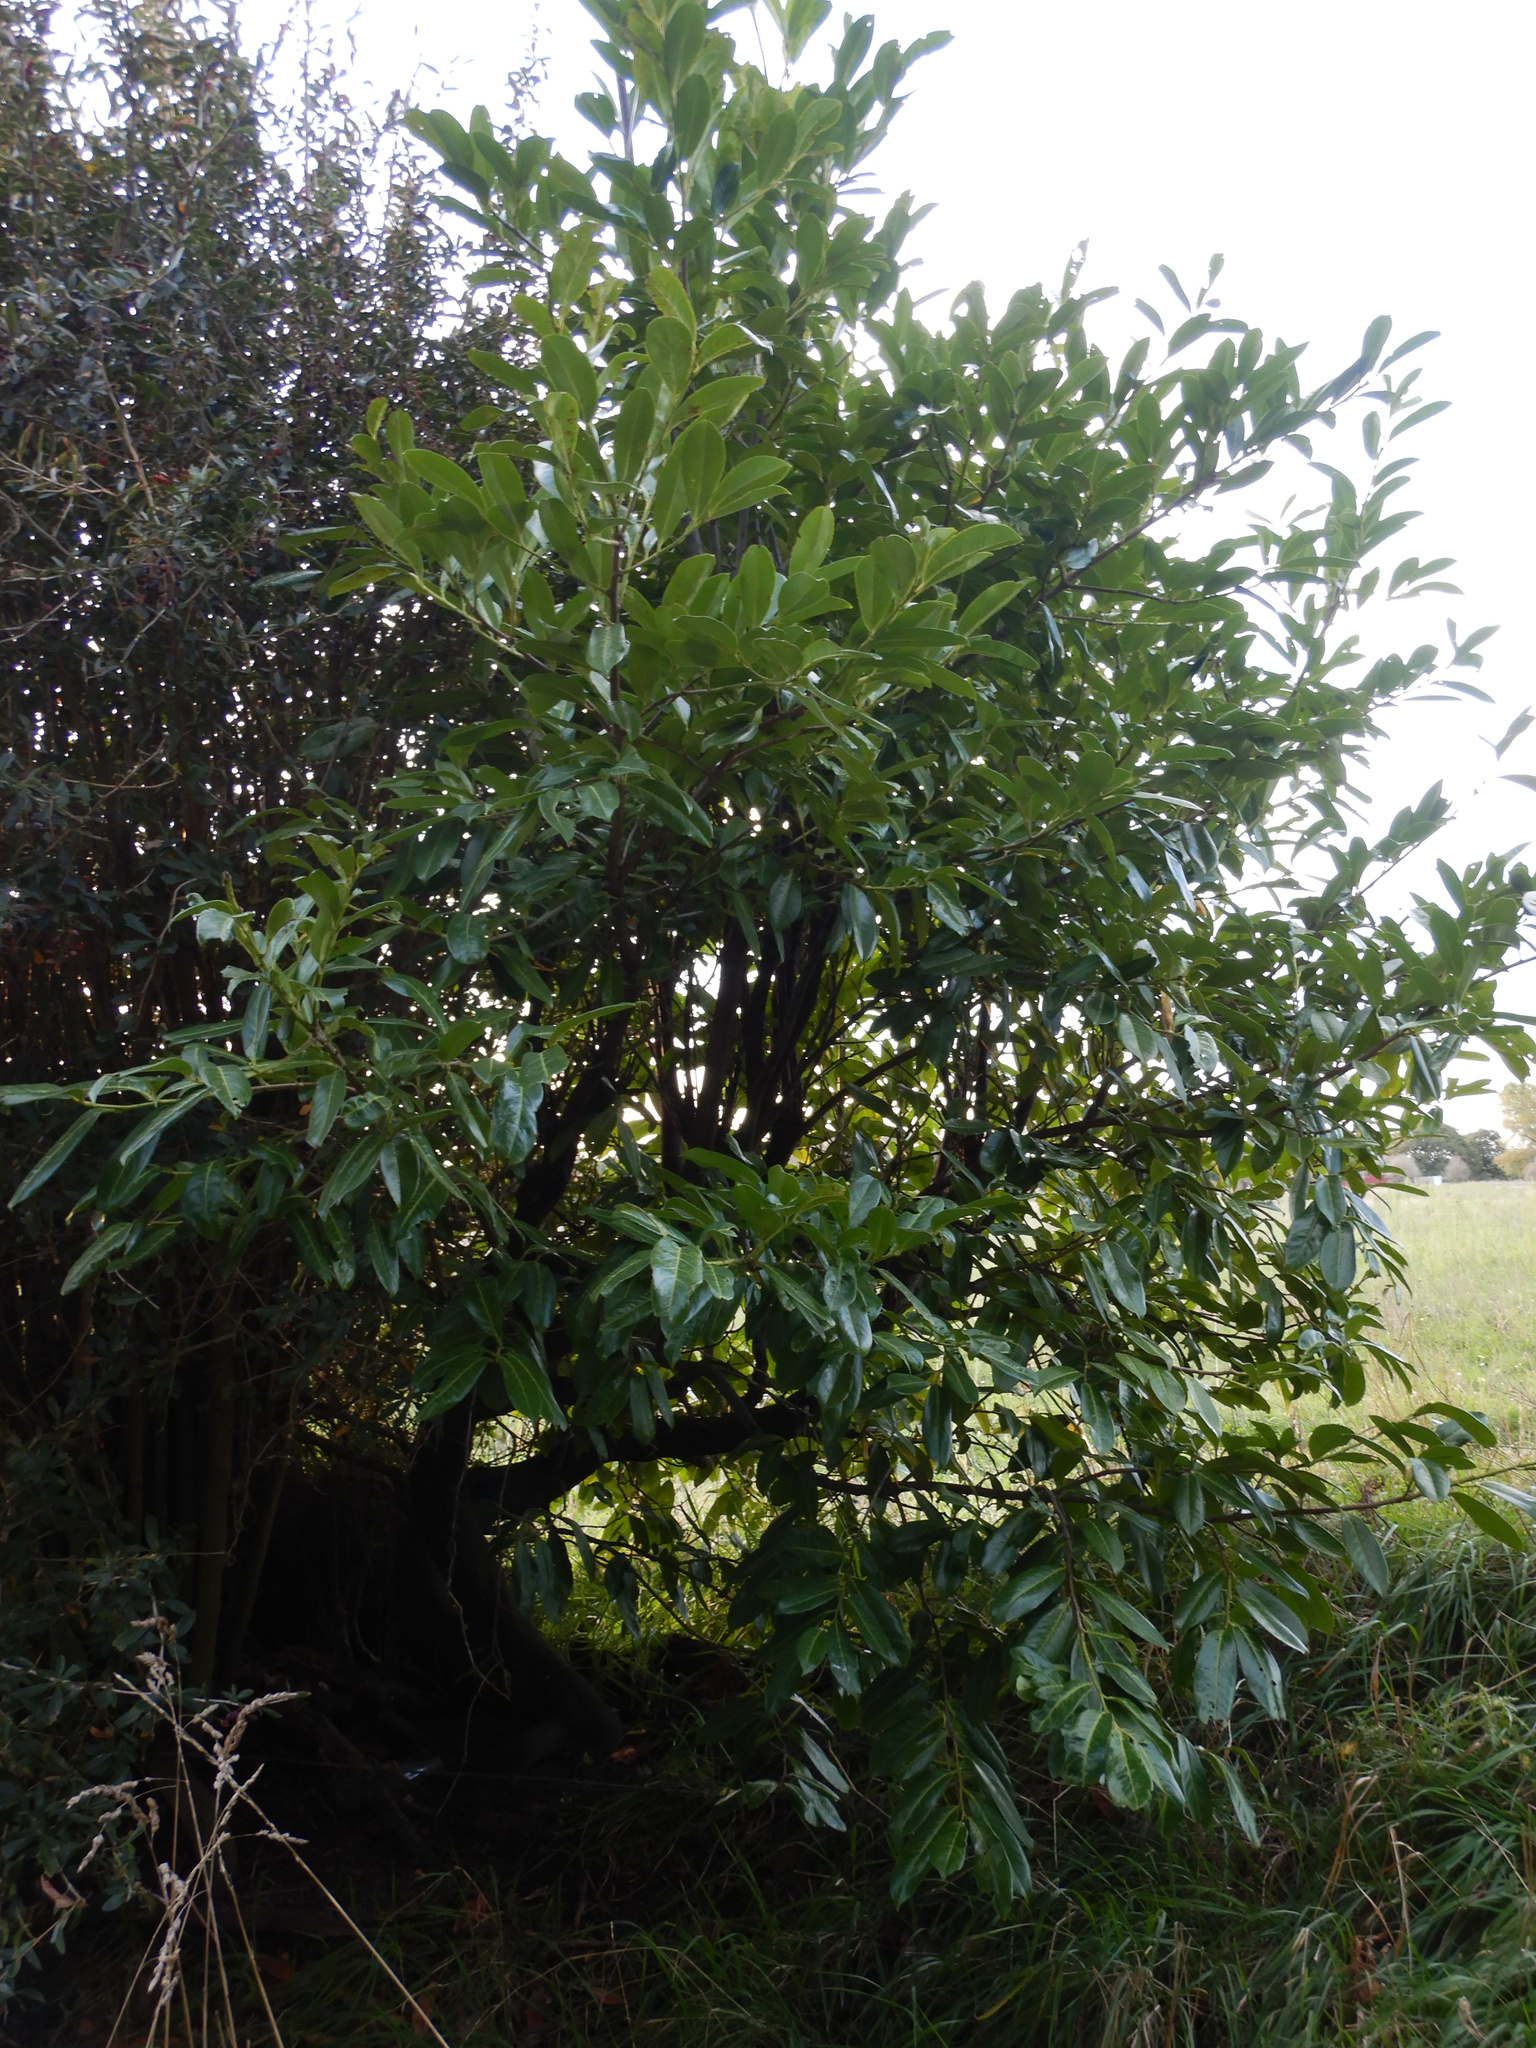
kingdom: Plantae
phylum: Tracheophyta
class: Magnoliopsida
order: Rosales
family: Rosaceae
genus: Prunus
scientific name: Prunus laurocerasus
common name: Cherry laurel
